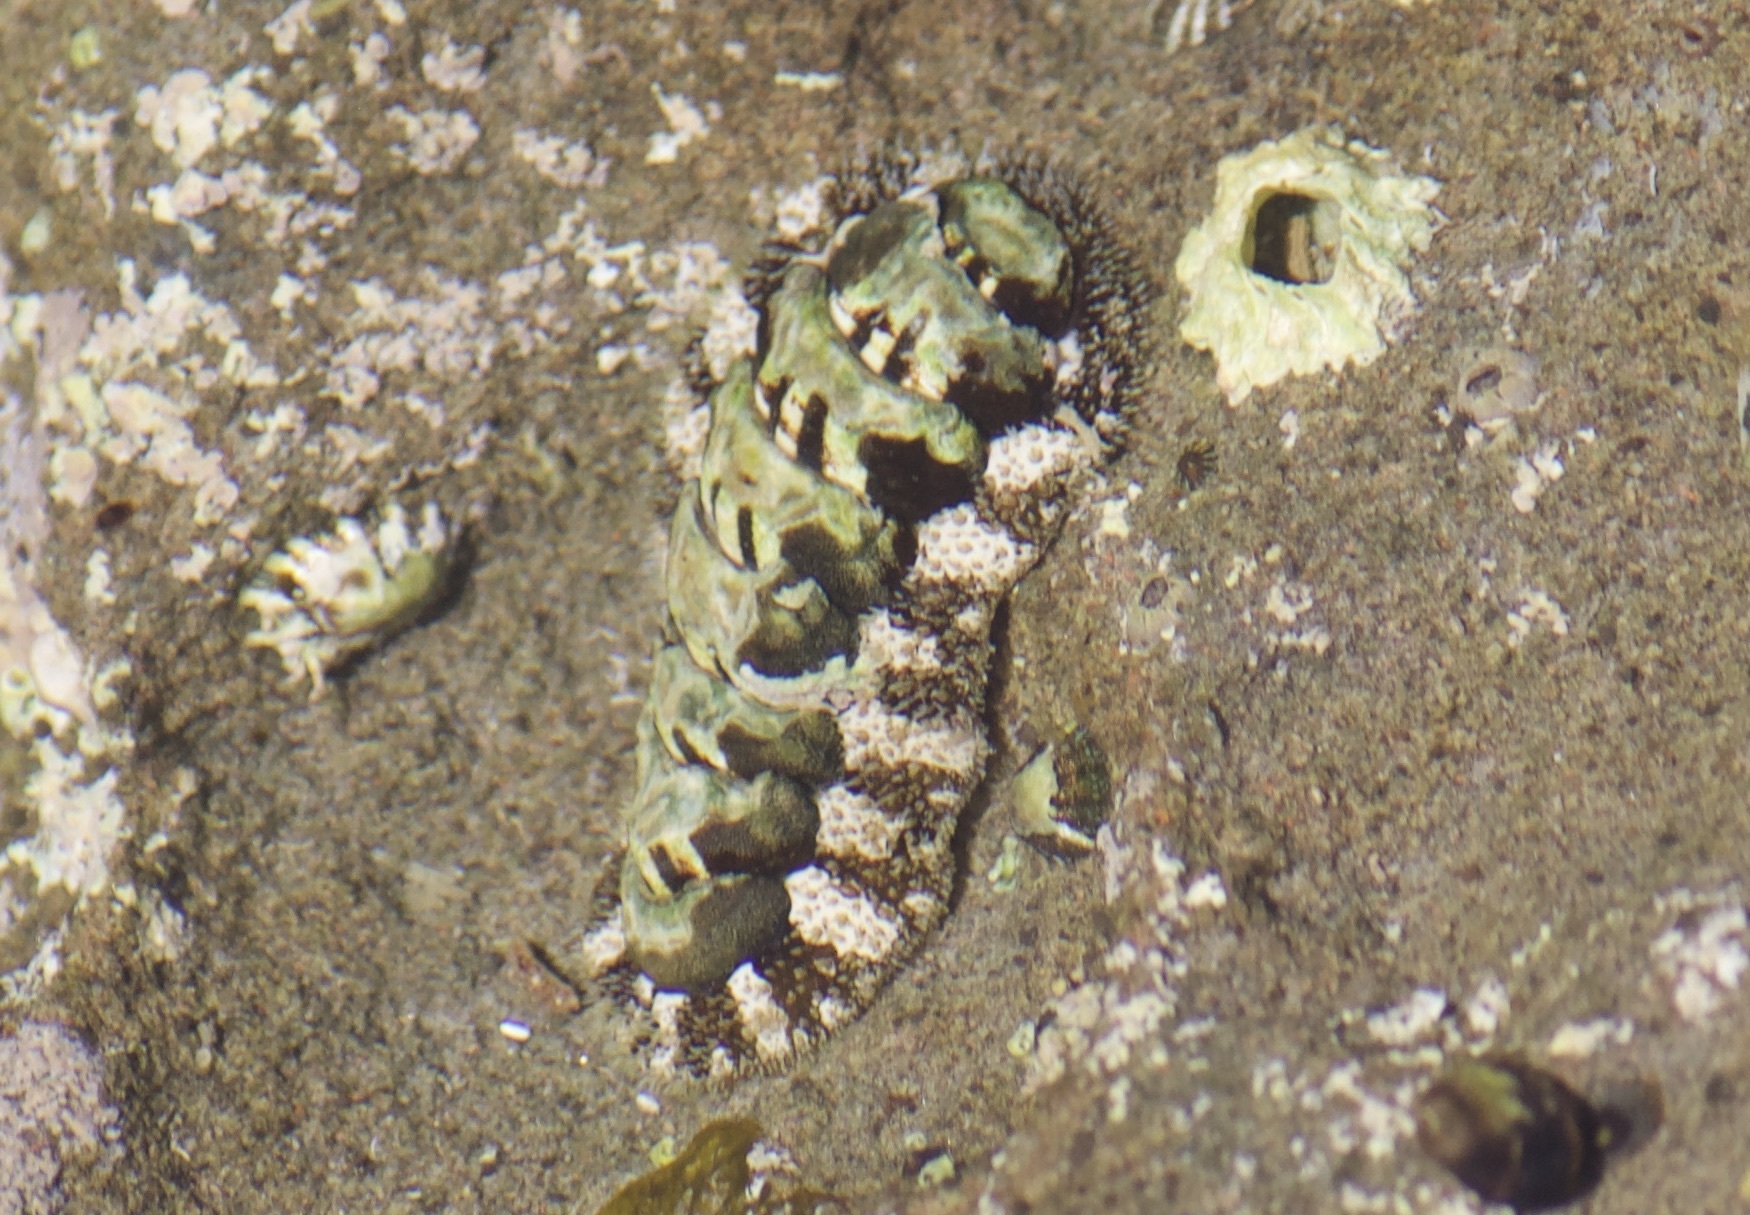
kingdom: Animalia
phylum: Mollusca
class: Polyplacophora
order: Chitonida
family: Tonicellidae
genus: Nuttallina
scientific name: Nuttallina californica
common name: California nuttall chiton
